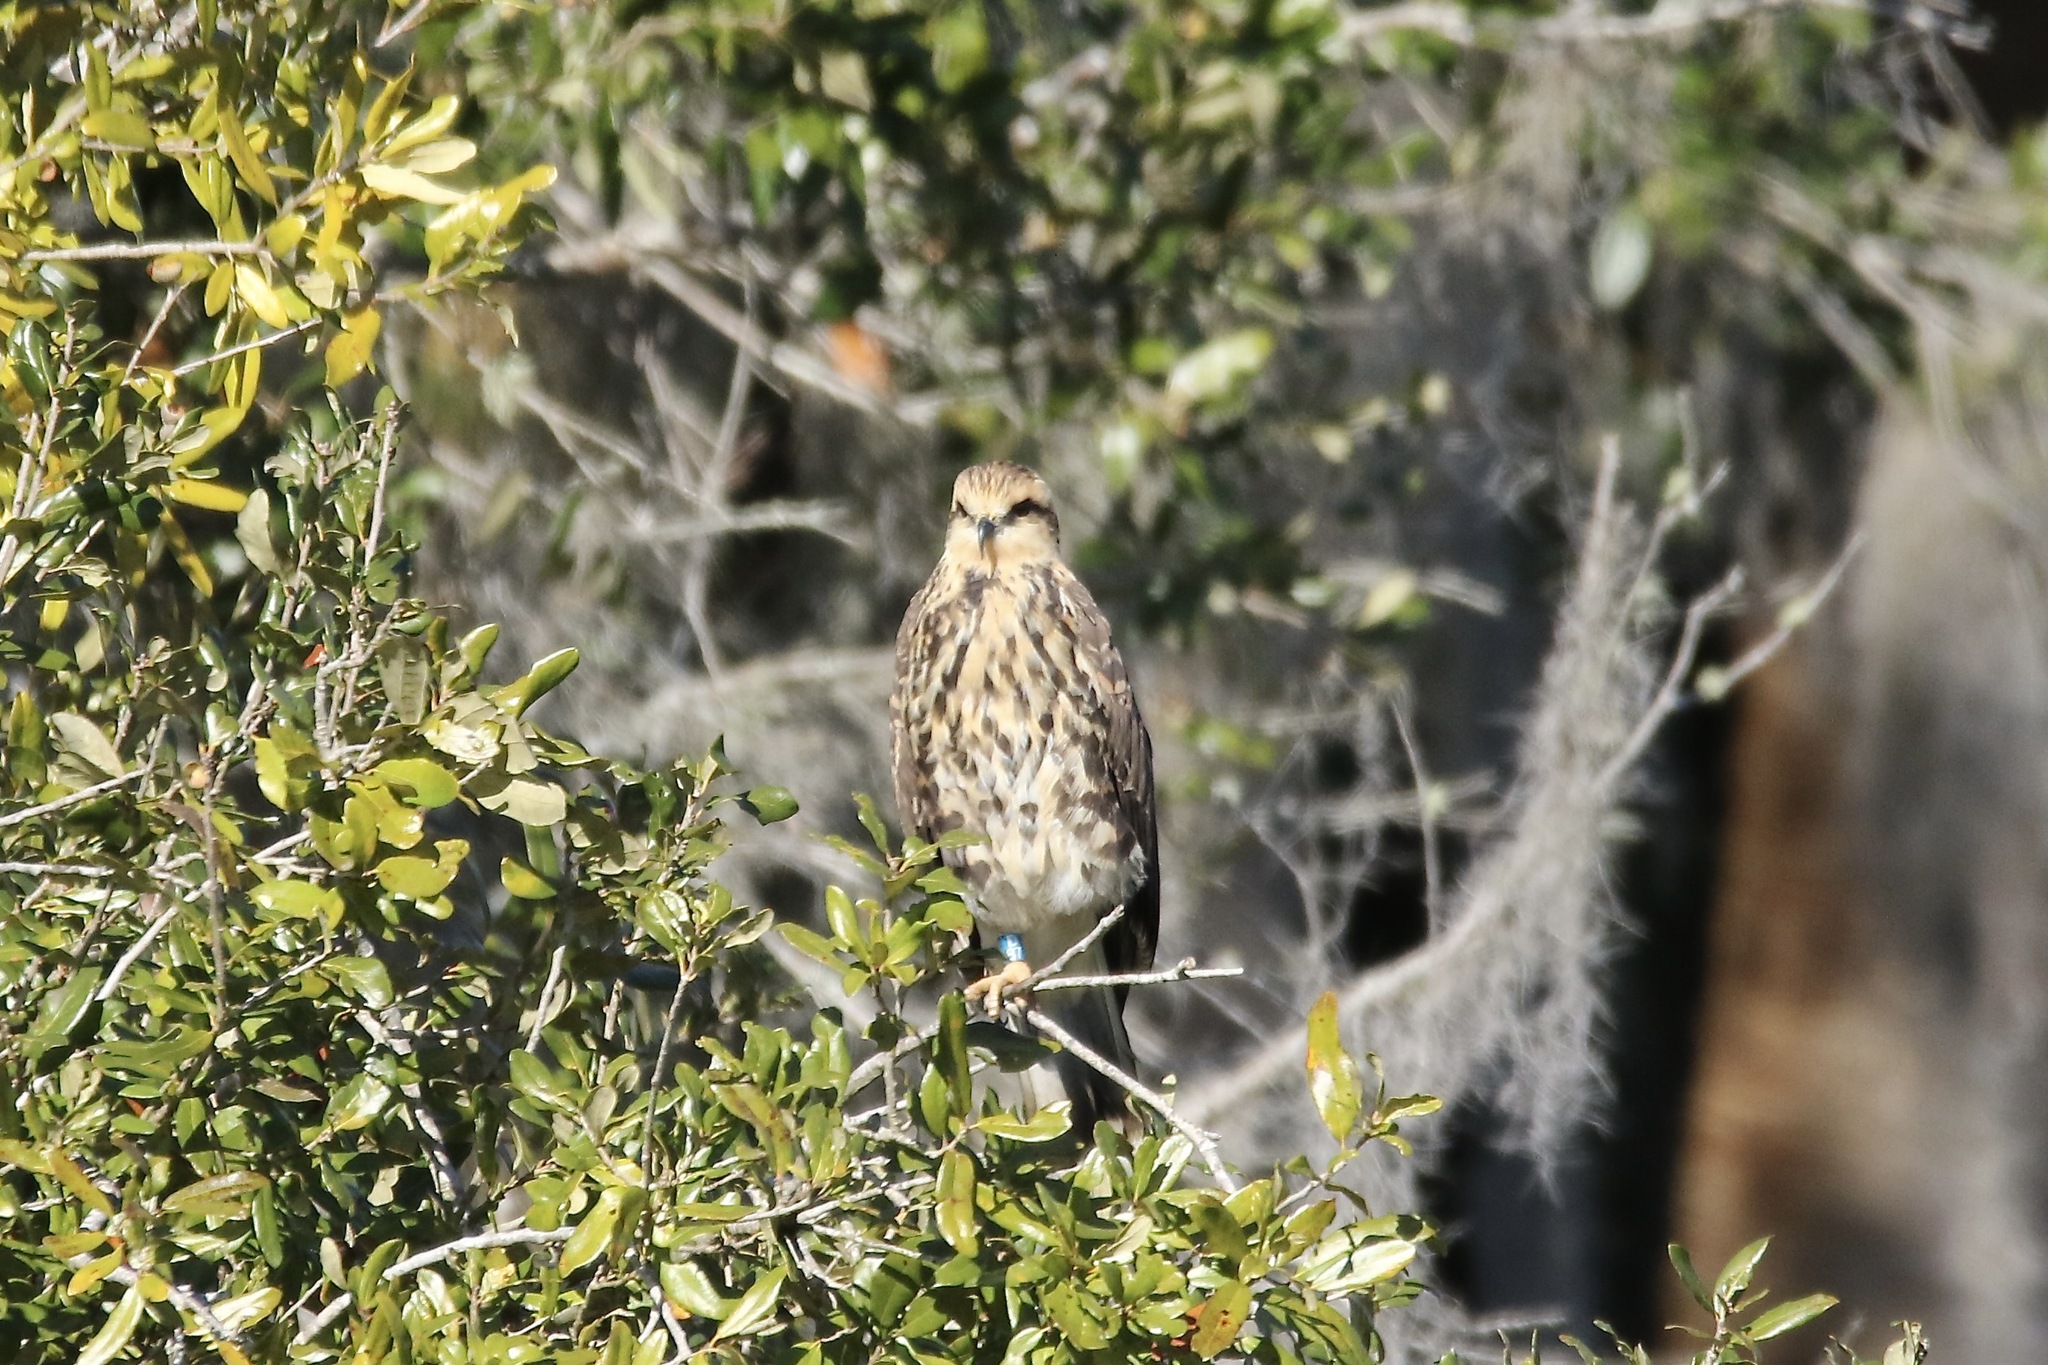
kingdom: Animalia
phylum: Chordata
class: Aves
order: Accipitriformes
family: Accipitridae
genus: Rostrhamus
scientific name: Rostrhamus sociabilis
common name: Snail kite
